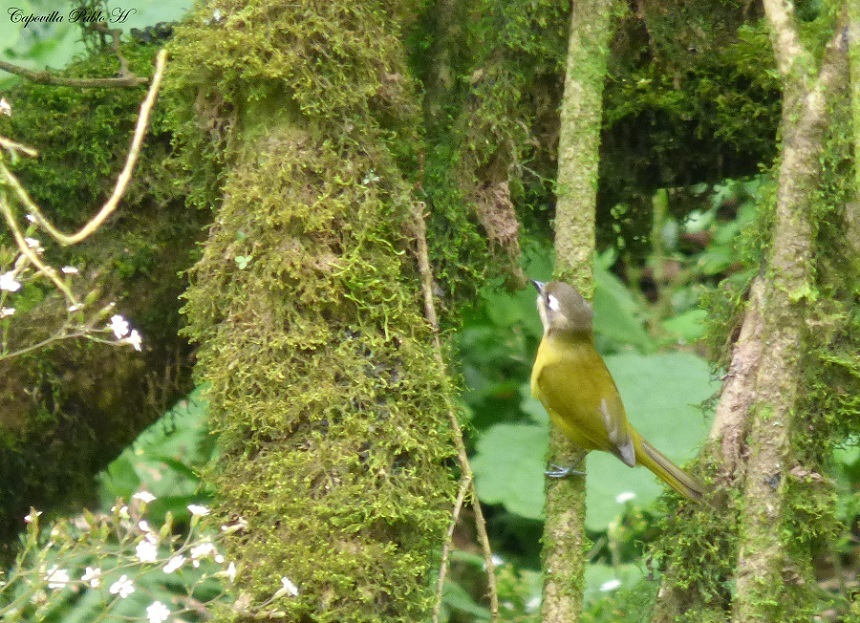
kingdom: Animalia
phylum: Chordata
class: Aves
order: Passeriformes
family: Passerellidae
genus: Chlorospingus
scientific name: Chlorospingus flavopectus
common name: Common chlorospingus
